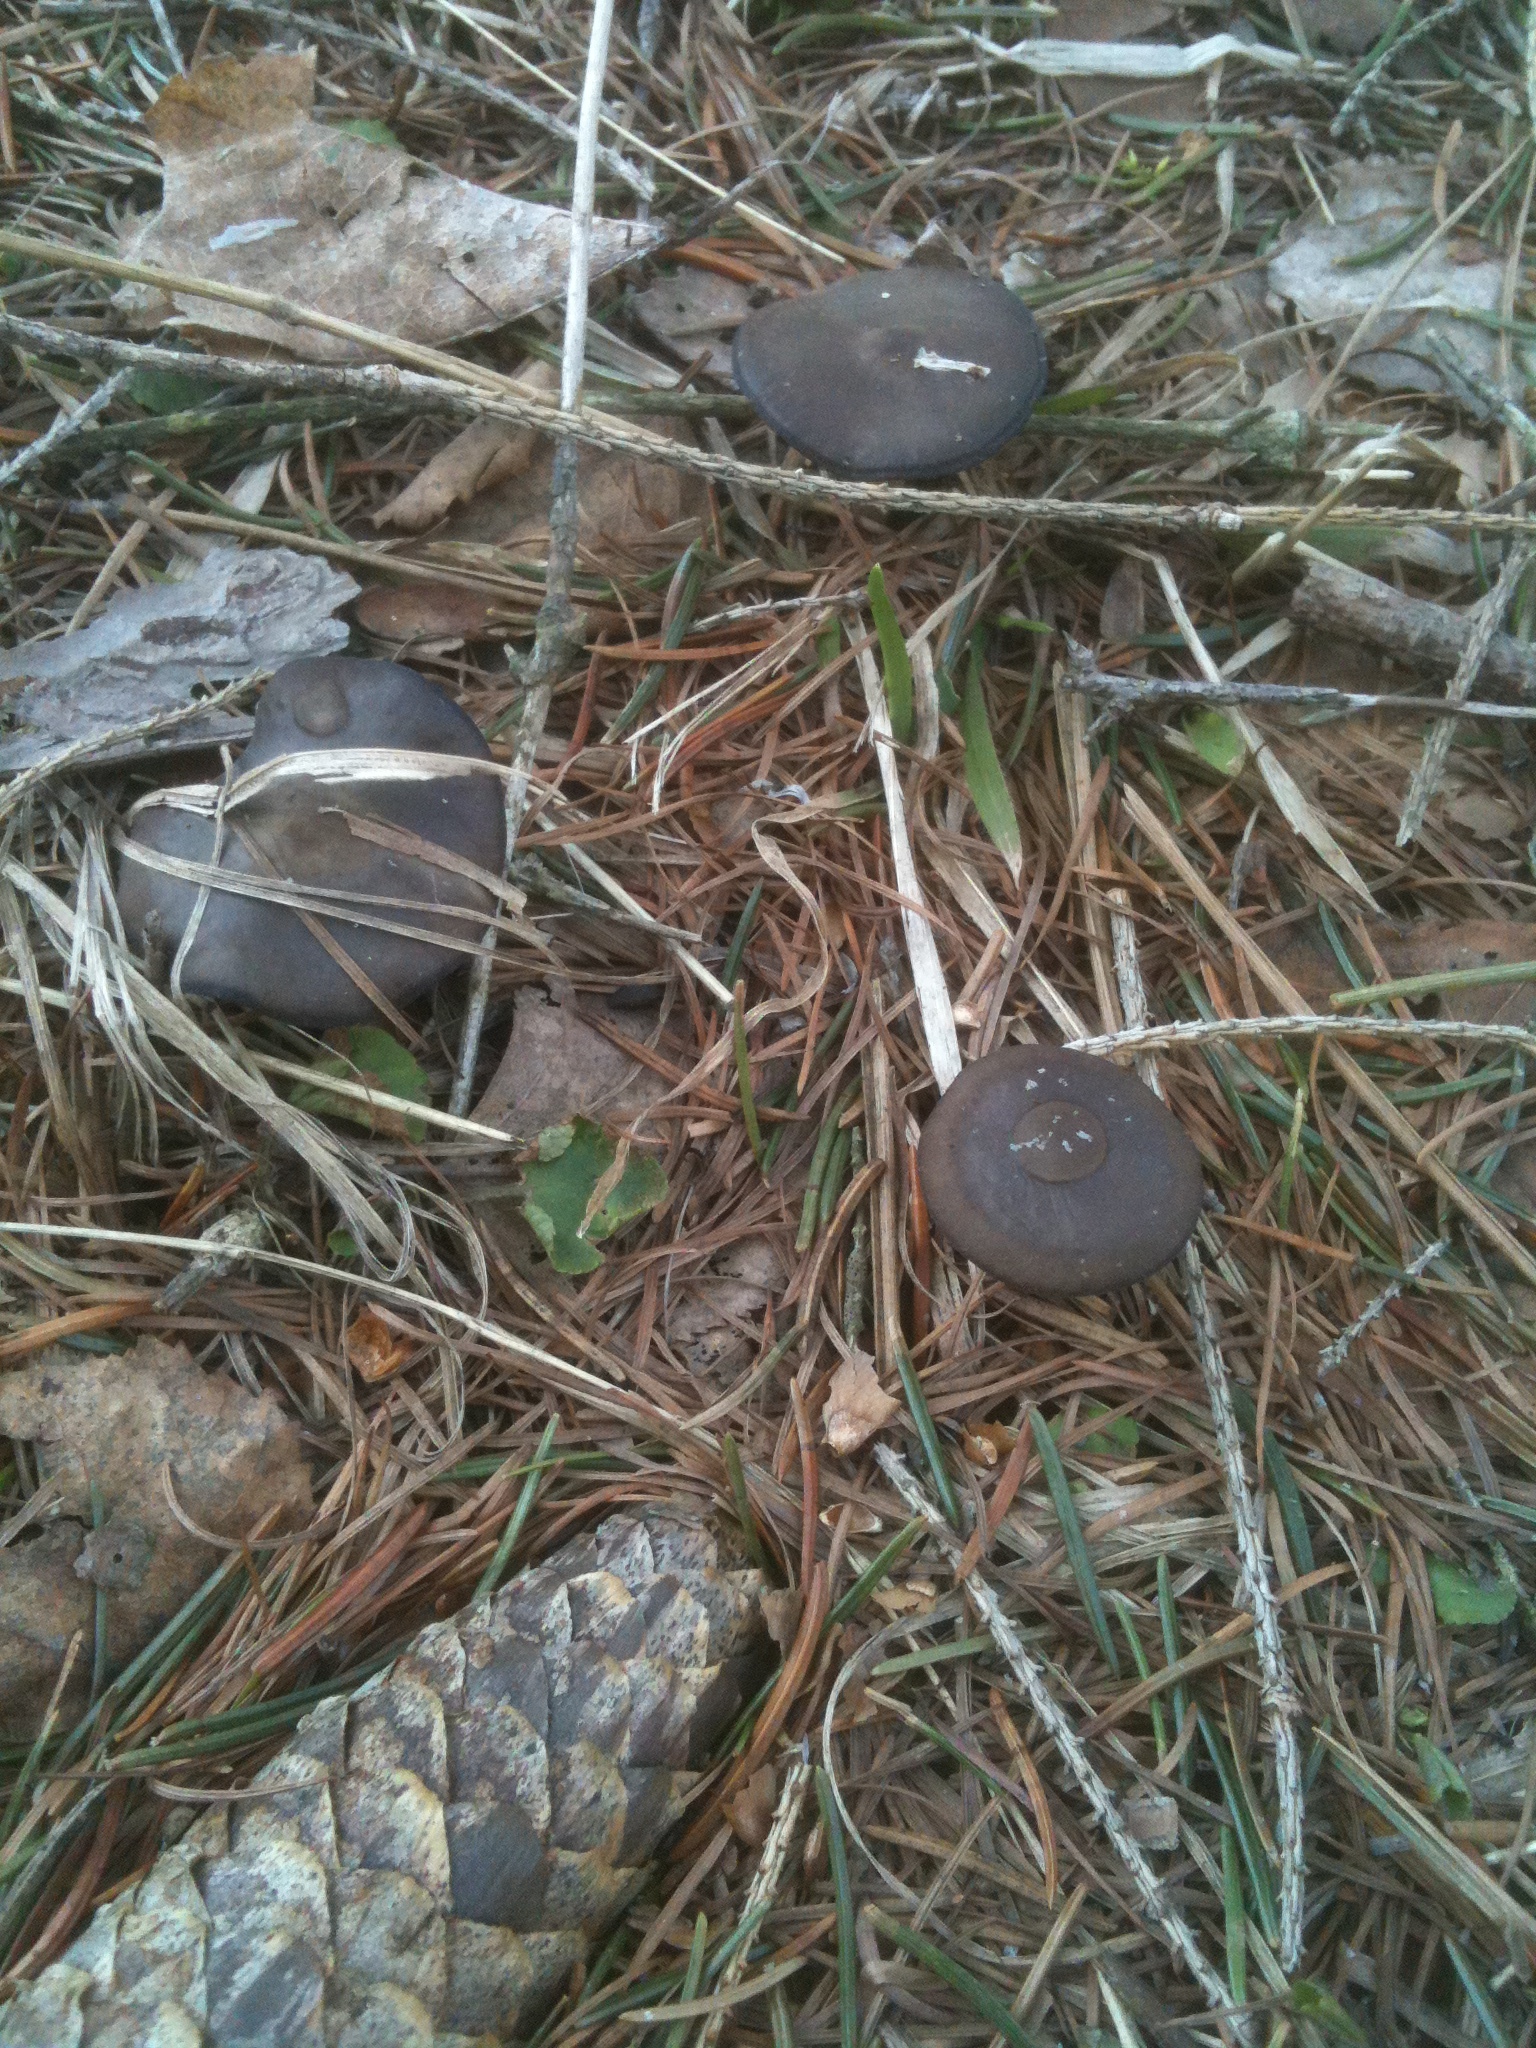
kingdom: Fungi
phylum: Basidiomycota
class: Agaricomycetes
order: Agaricales
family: Physalacriaceae
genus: Strobilurus
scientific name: Strobilurus esculentus
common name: Sprucecone cap
